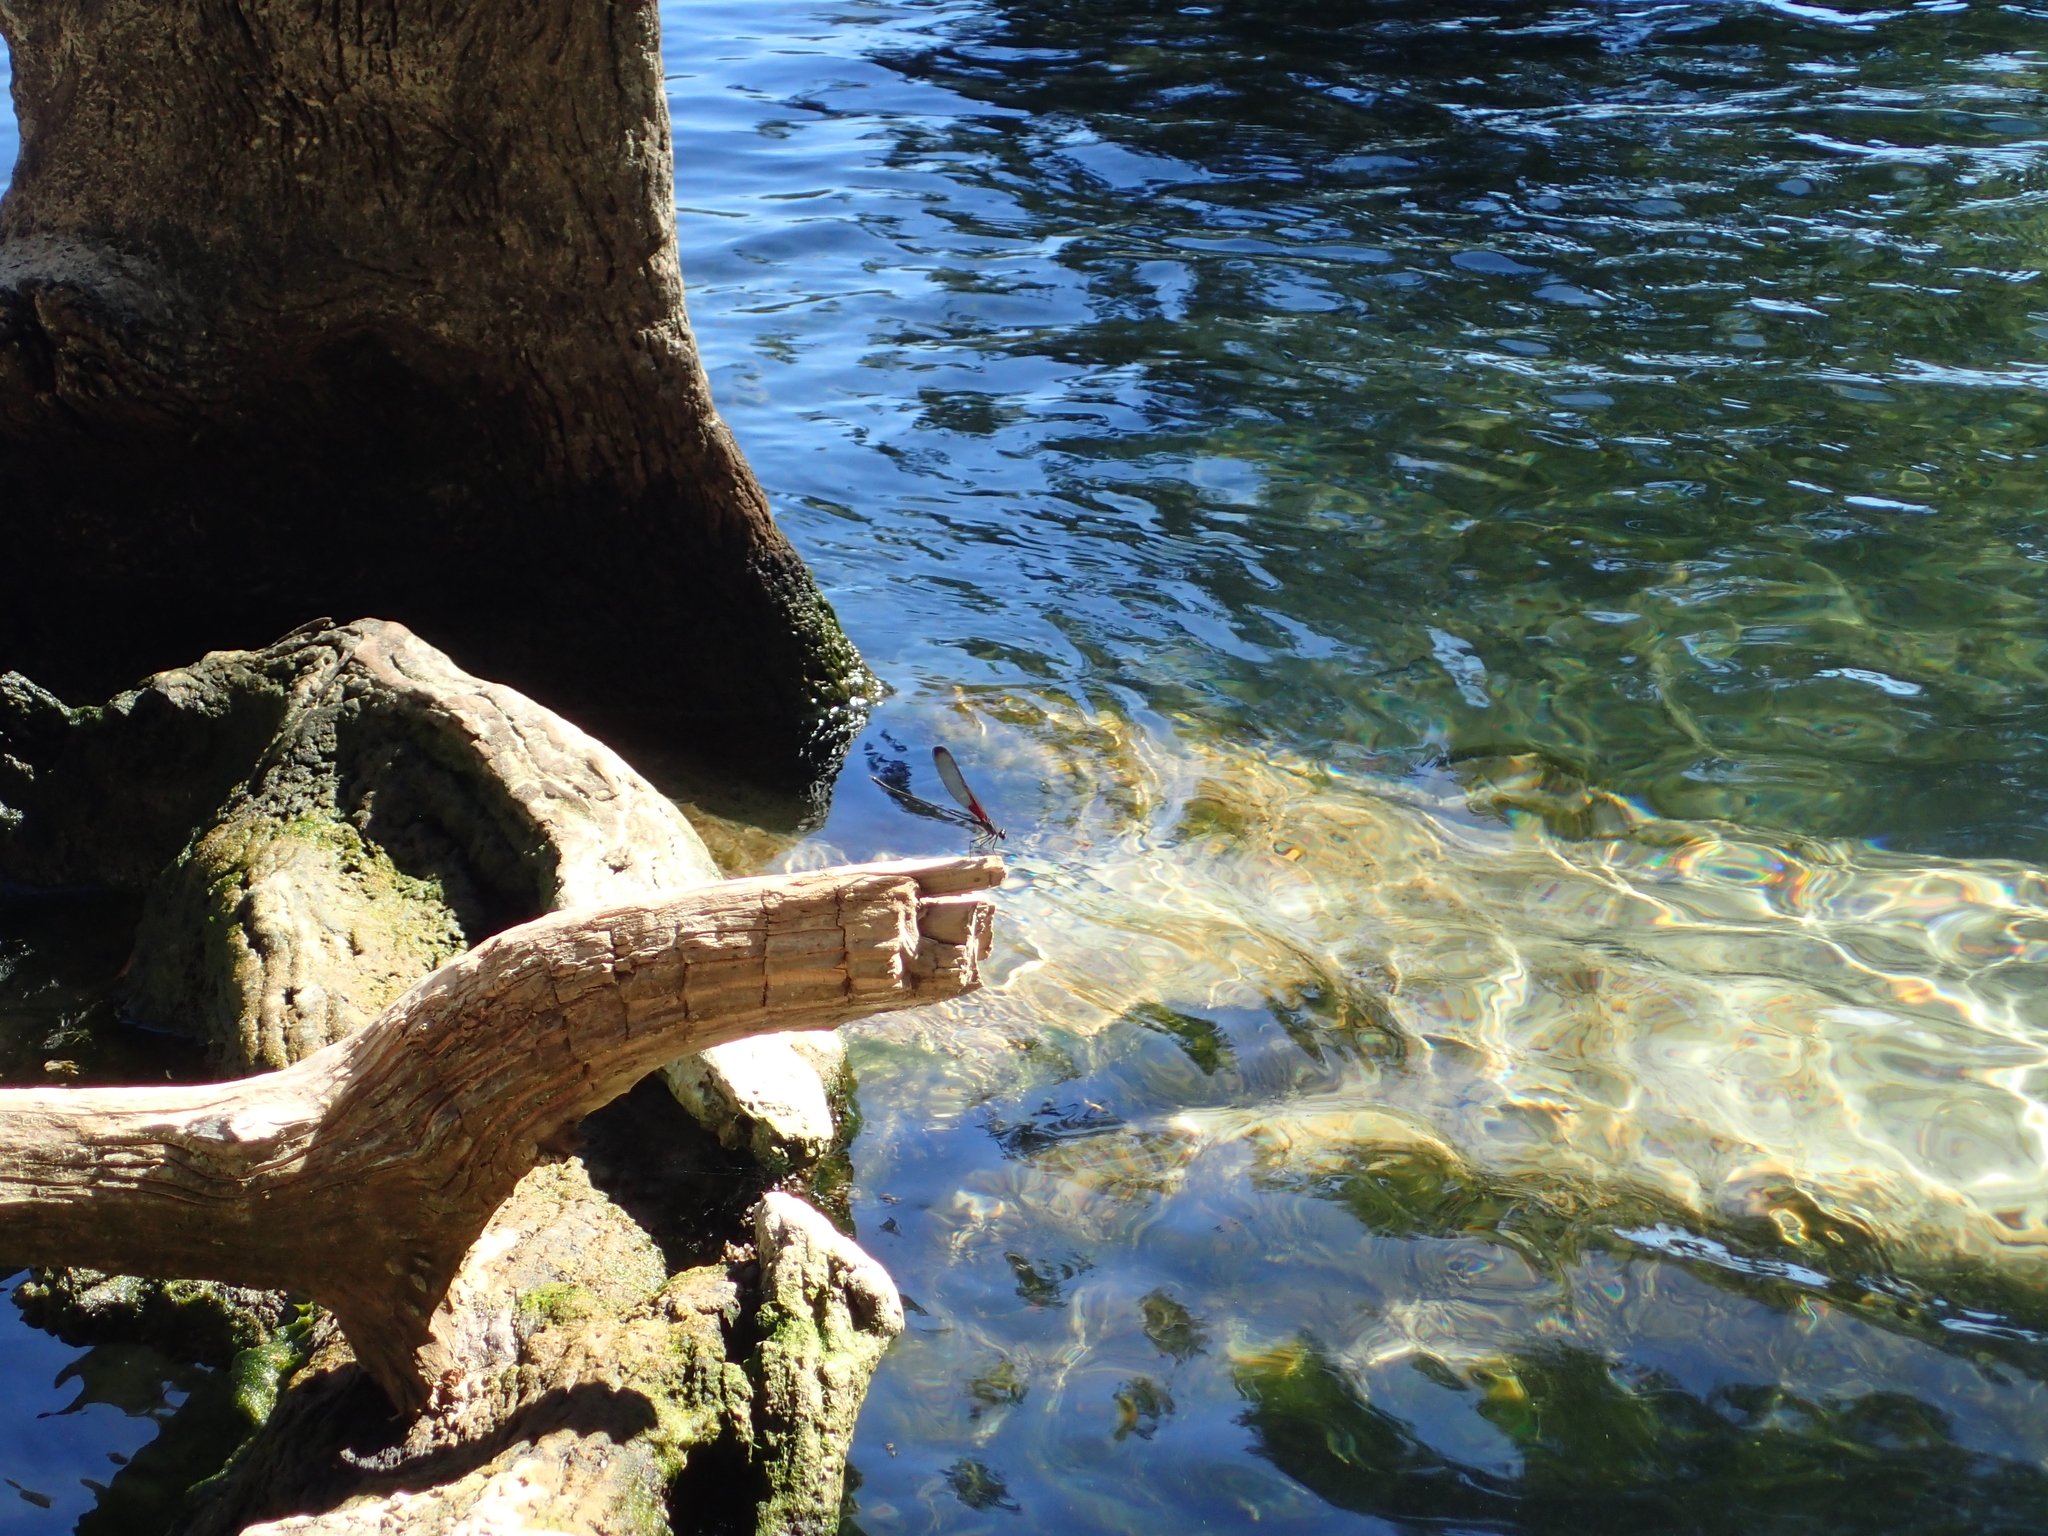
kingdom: Animalia
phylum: Arthropoda
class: Insecta
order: Odonata
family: Calopterygidae
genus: Hetaerina
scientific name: Hetaerina titia
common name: Smoky rubyspot
